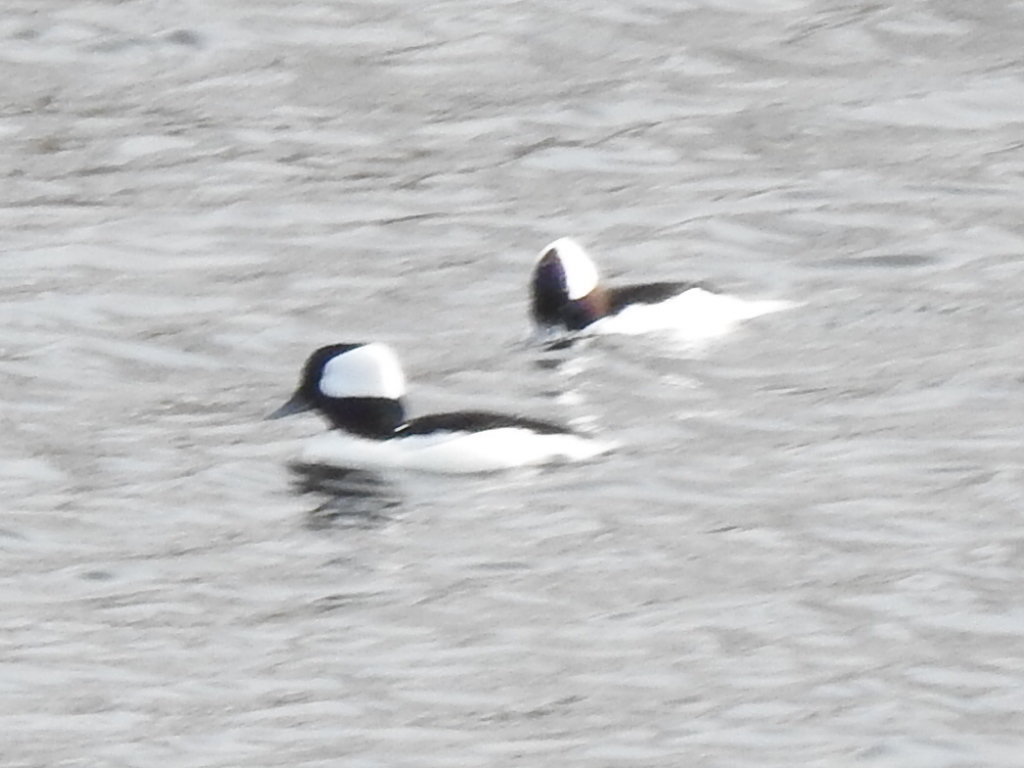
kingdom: Animalia
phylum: Chordata
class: Aves
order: Anseriformes
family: Anatidae
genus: Bucephala
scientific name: Bucephala albeola
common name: Bufflehead
